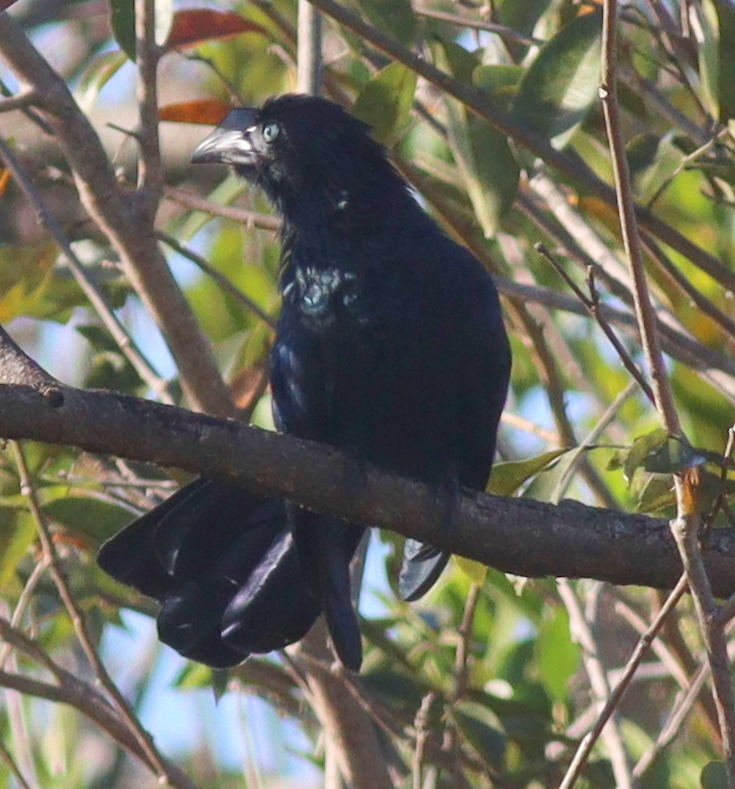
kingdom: Animalia
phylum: Chordata
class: Aves
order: Cuculiformes
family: Cuculidae
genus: Crotophaga
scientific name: Crotophaga major
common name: Greater ani
